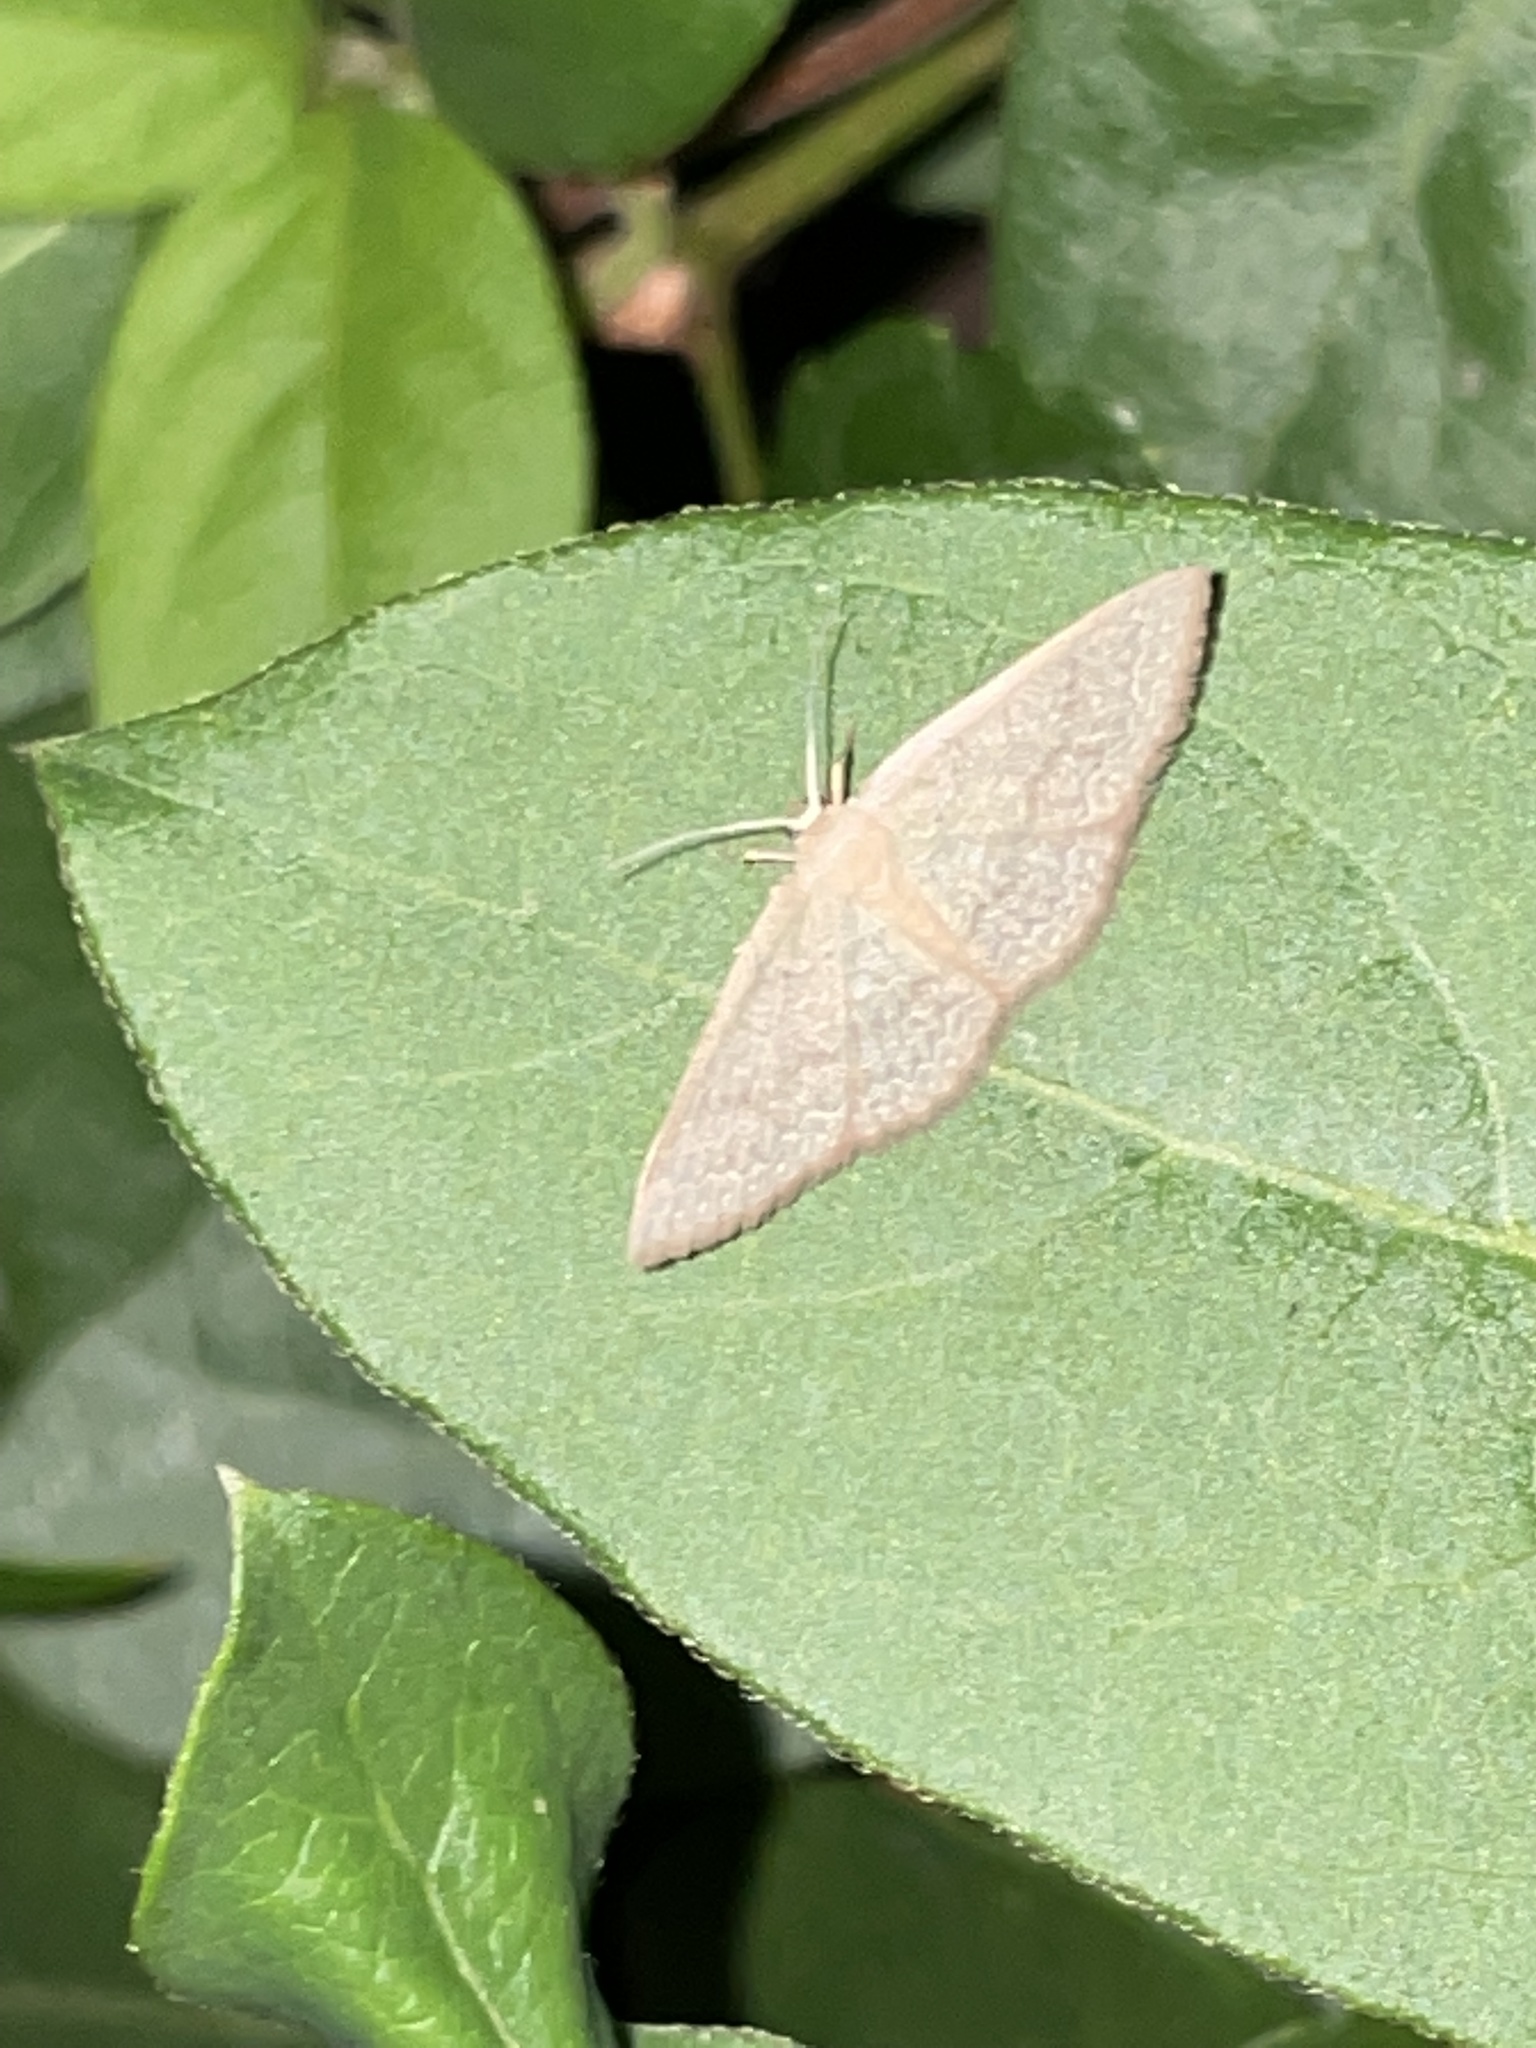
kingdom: Animalia
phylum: Arthropoda
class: Insecta
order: Lepidoptera
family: Geometridae
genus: Pleuroprucha
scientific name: Pleuroprucha insulsaria
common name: Common tan wave
